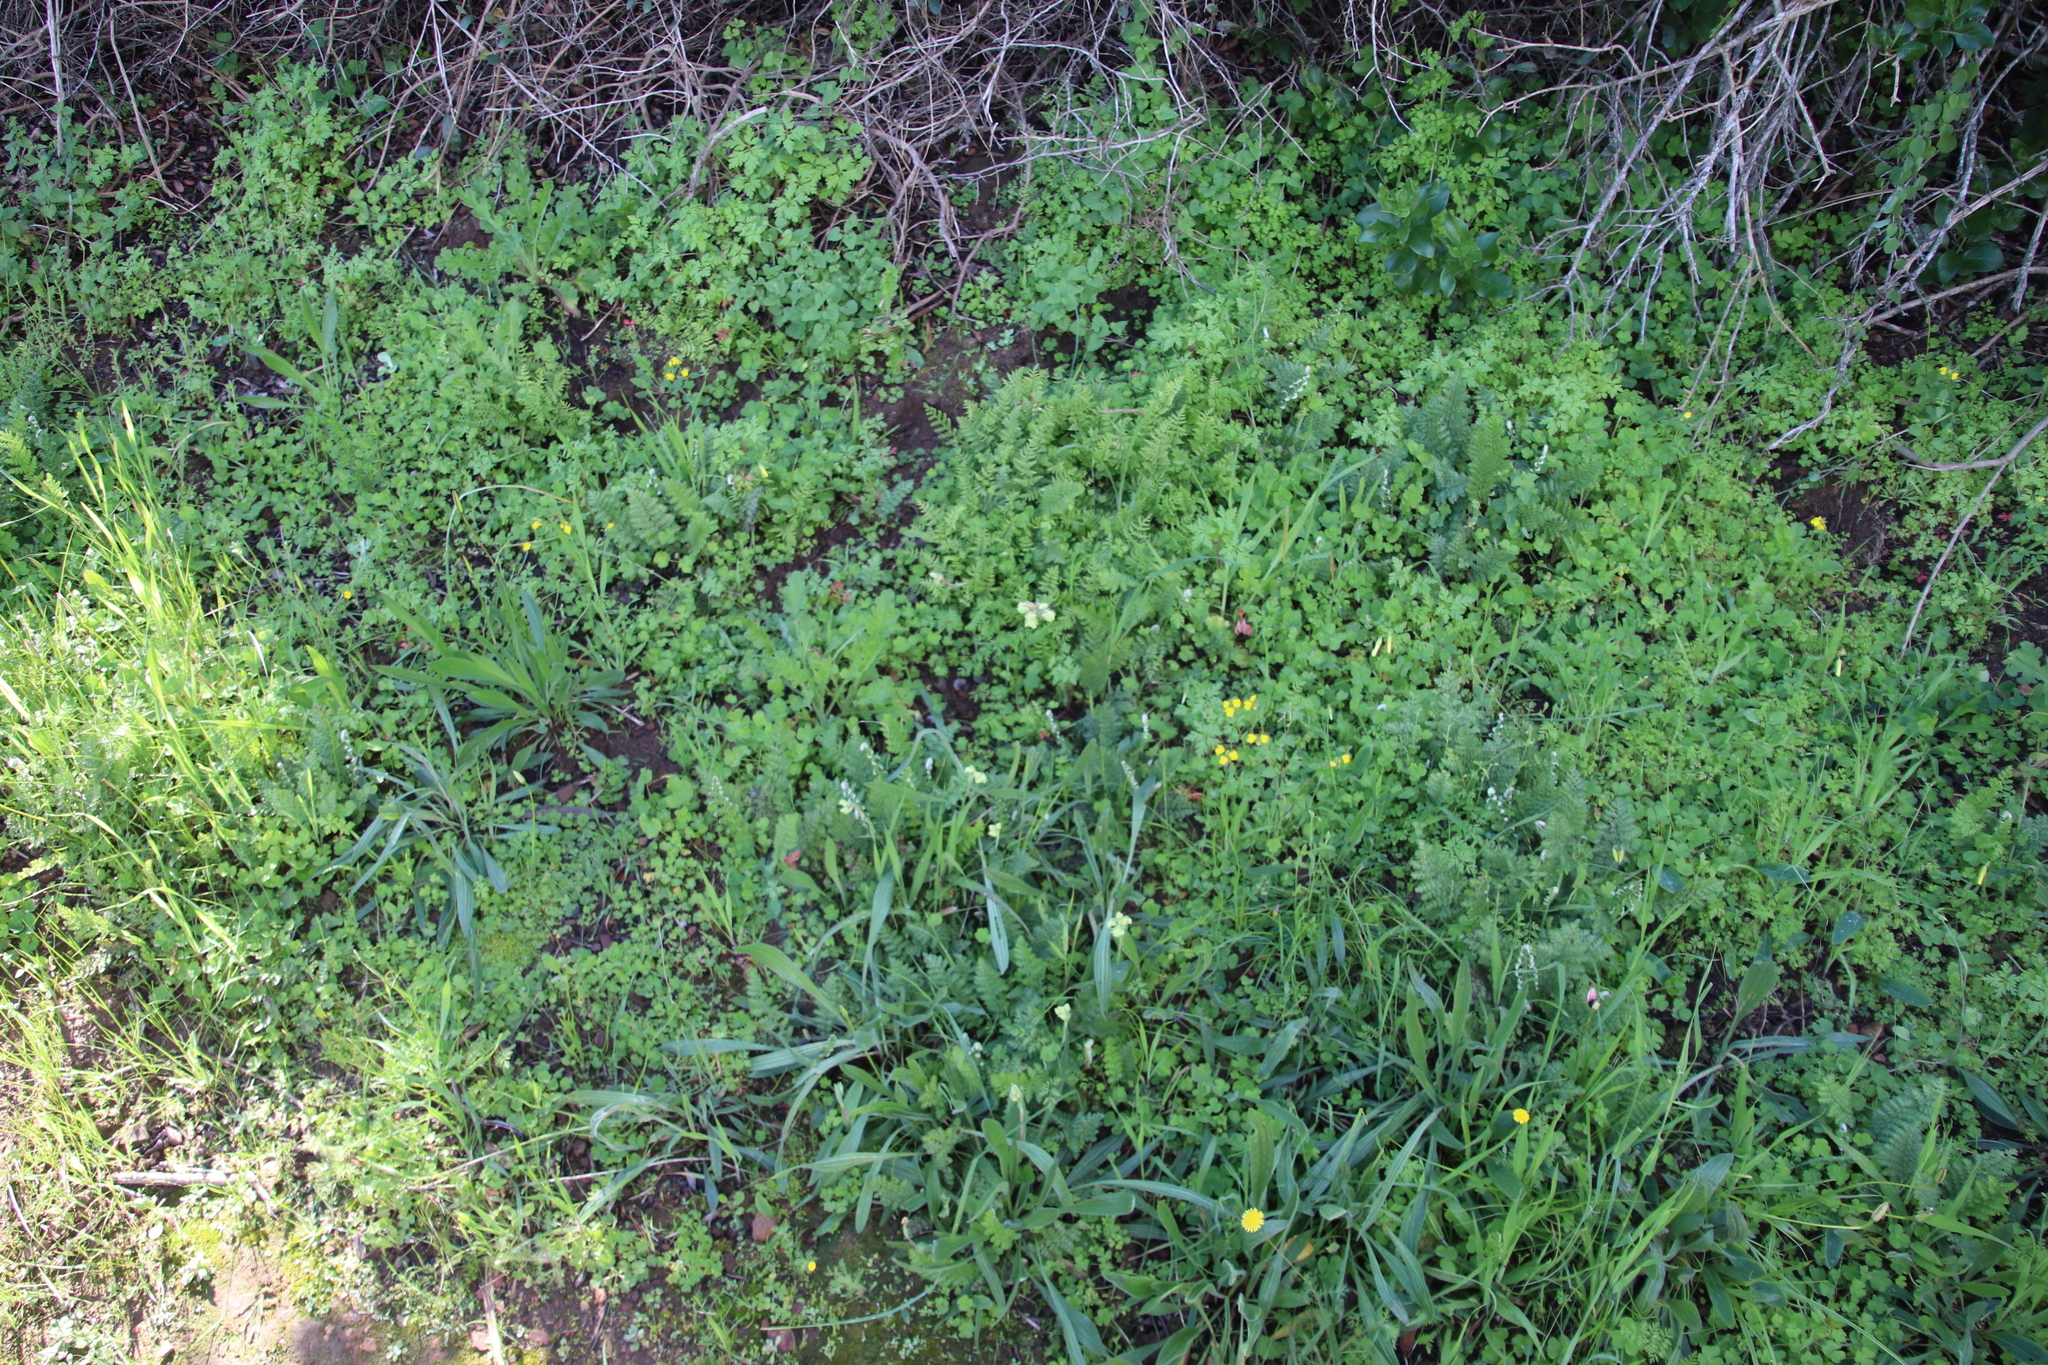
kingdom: Plantae
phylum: Tracheophyta
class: Polypodiopsida
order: Schizaeales
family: Anemiaceae
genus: Anemia
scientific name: Anemia caffrorum
